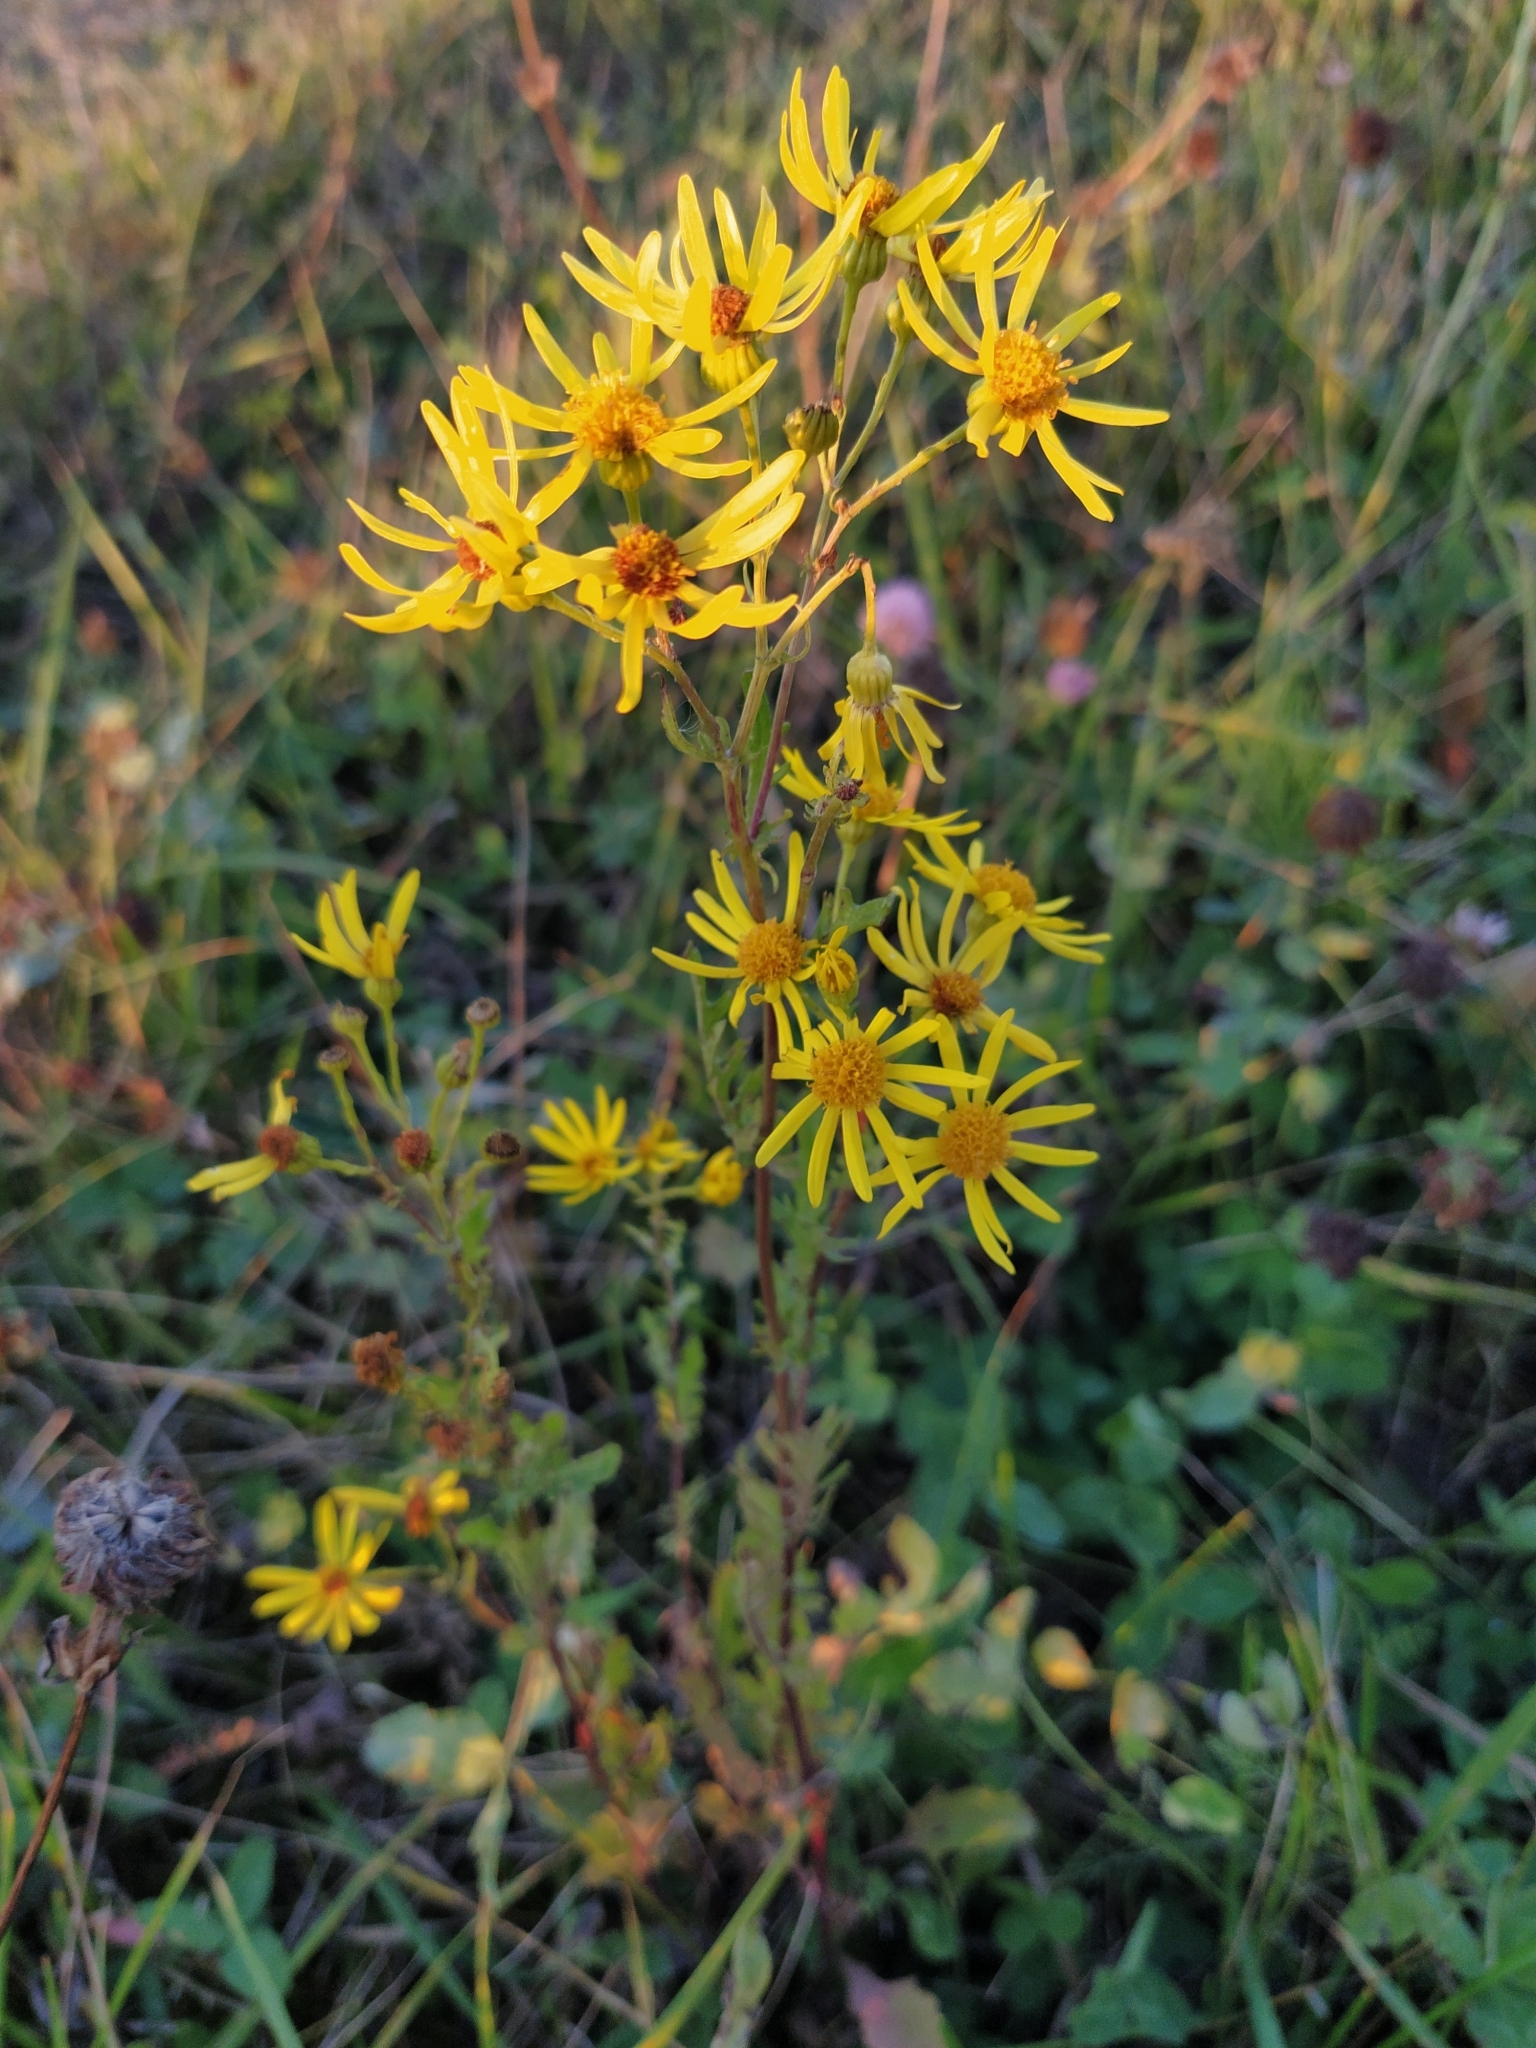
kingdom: Plantae
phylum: Tracheophyta
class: Magnoliopsida
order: Asterales
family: Asteraceae
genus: Jacobaea
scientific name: Jacobaea vulgaris
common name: Stinking willie
